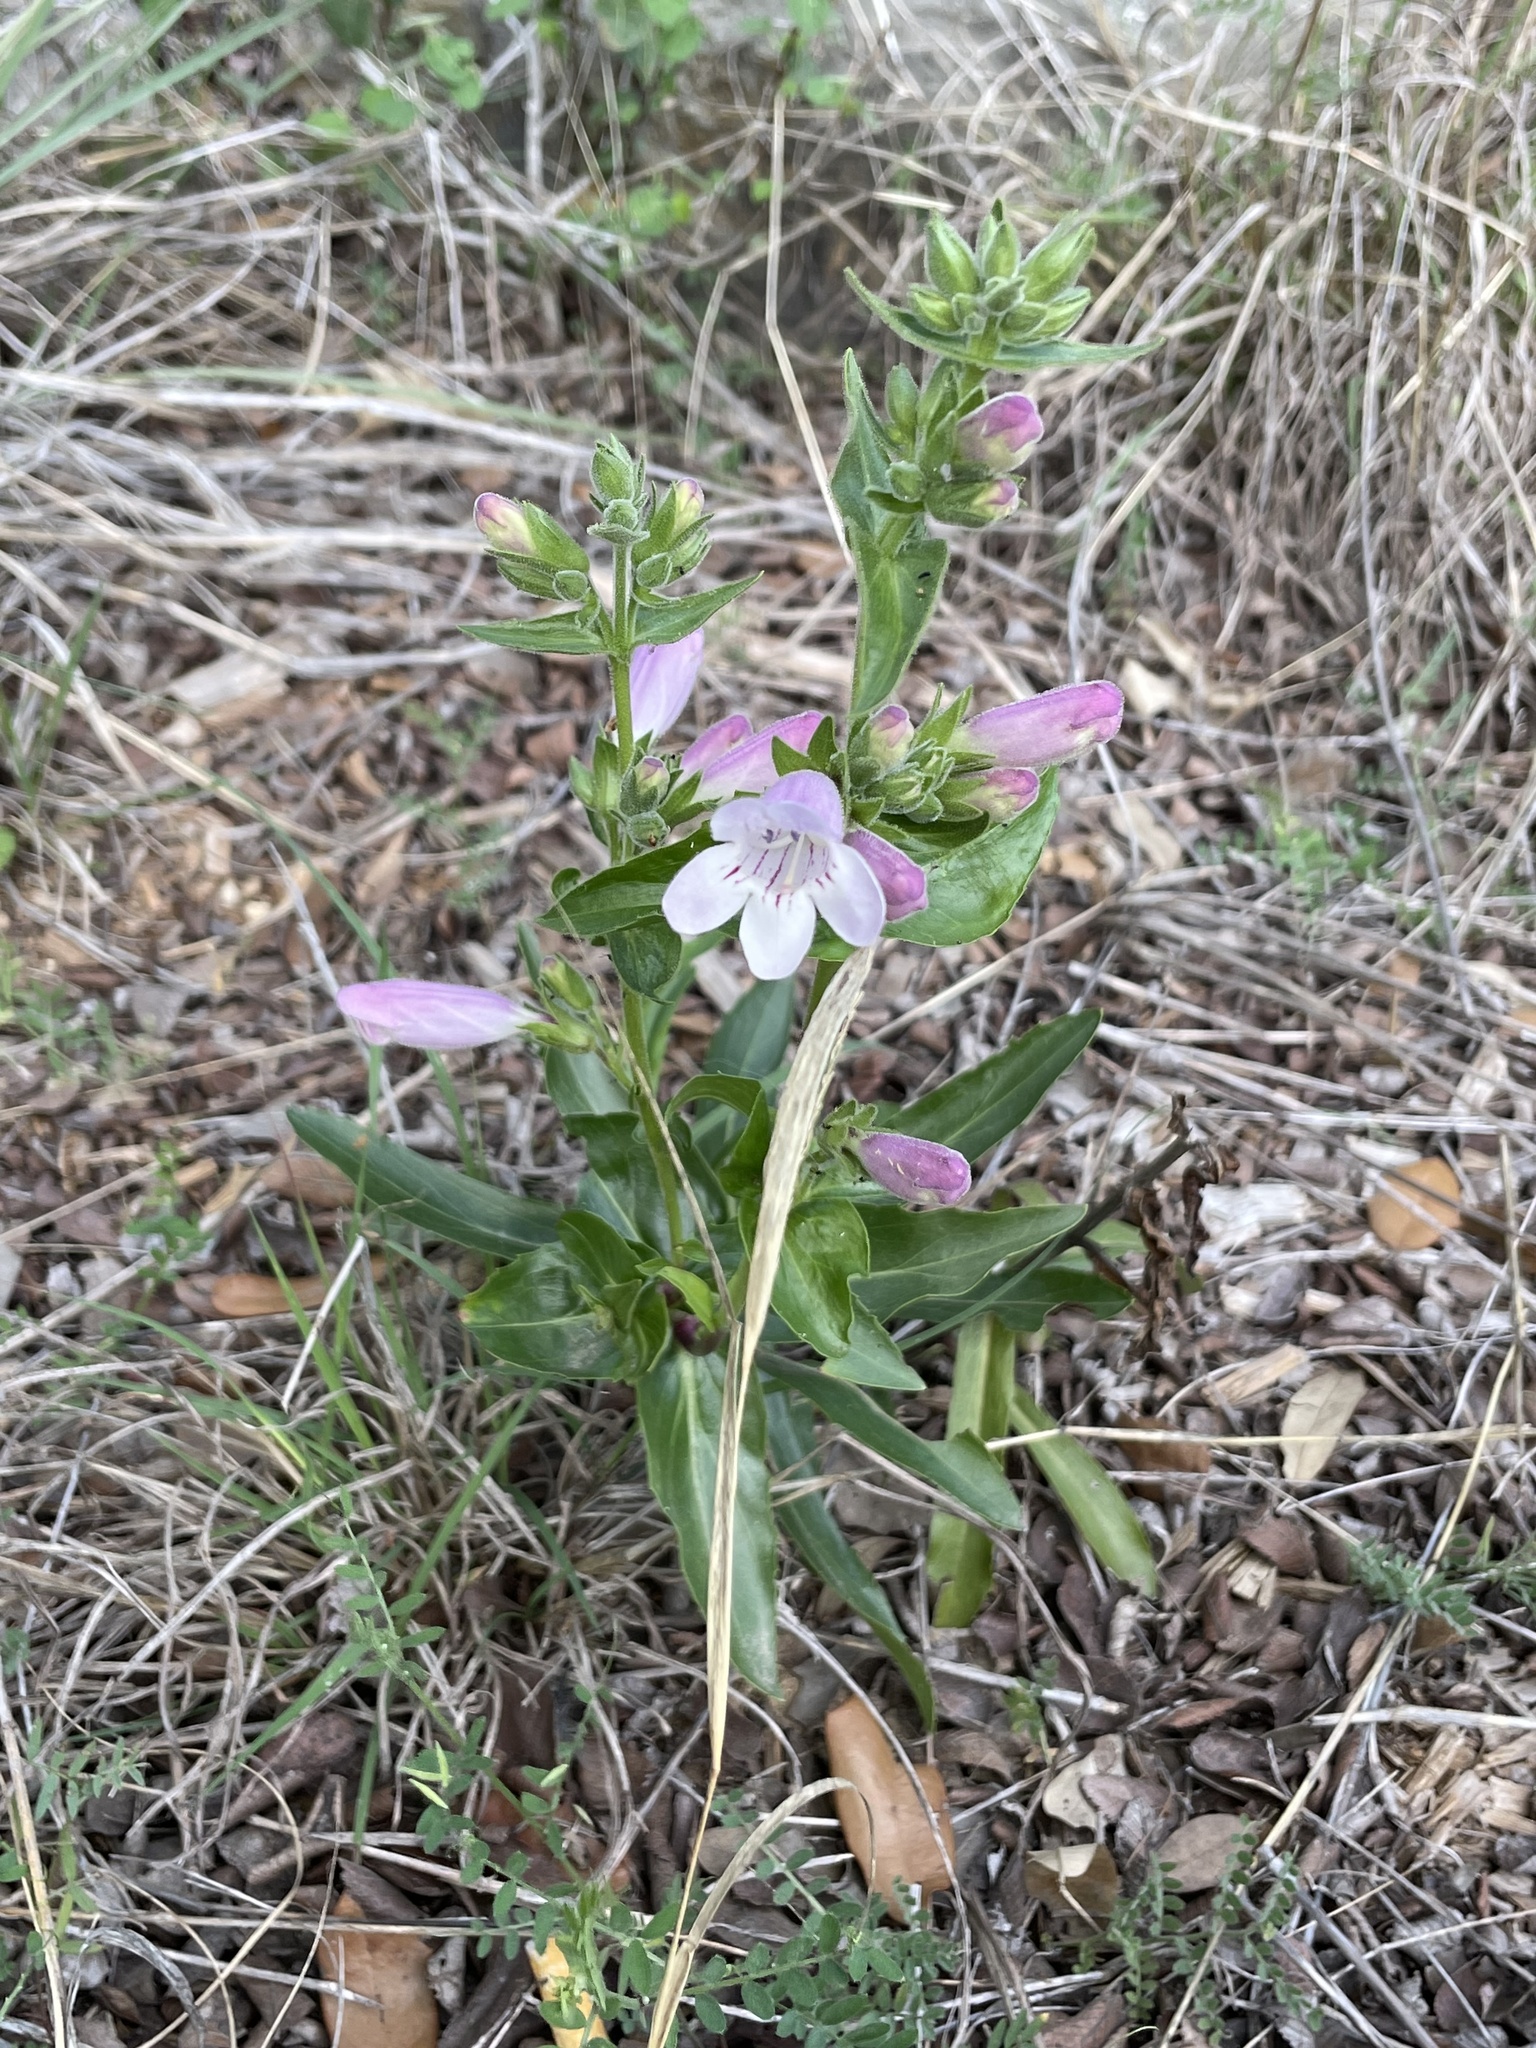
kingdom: Plantae
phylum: Tracheophyta
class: Magnoliopsida
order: Lamiales
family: Plantaginaceae
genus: Penstemon
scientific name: Penstemon cobaea
